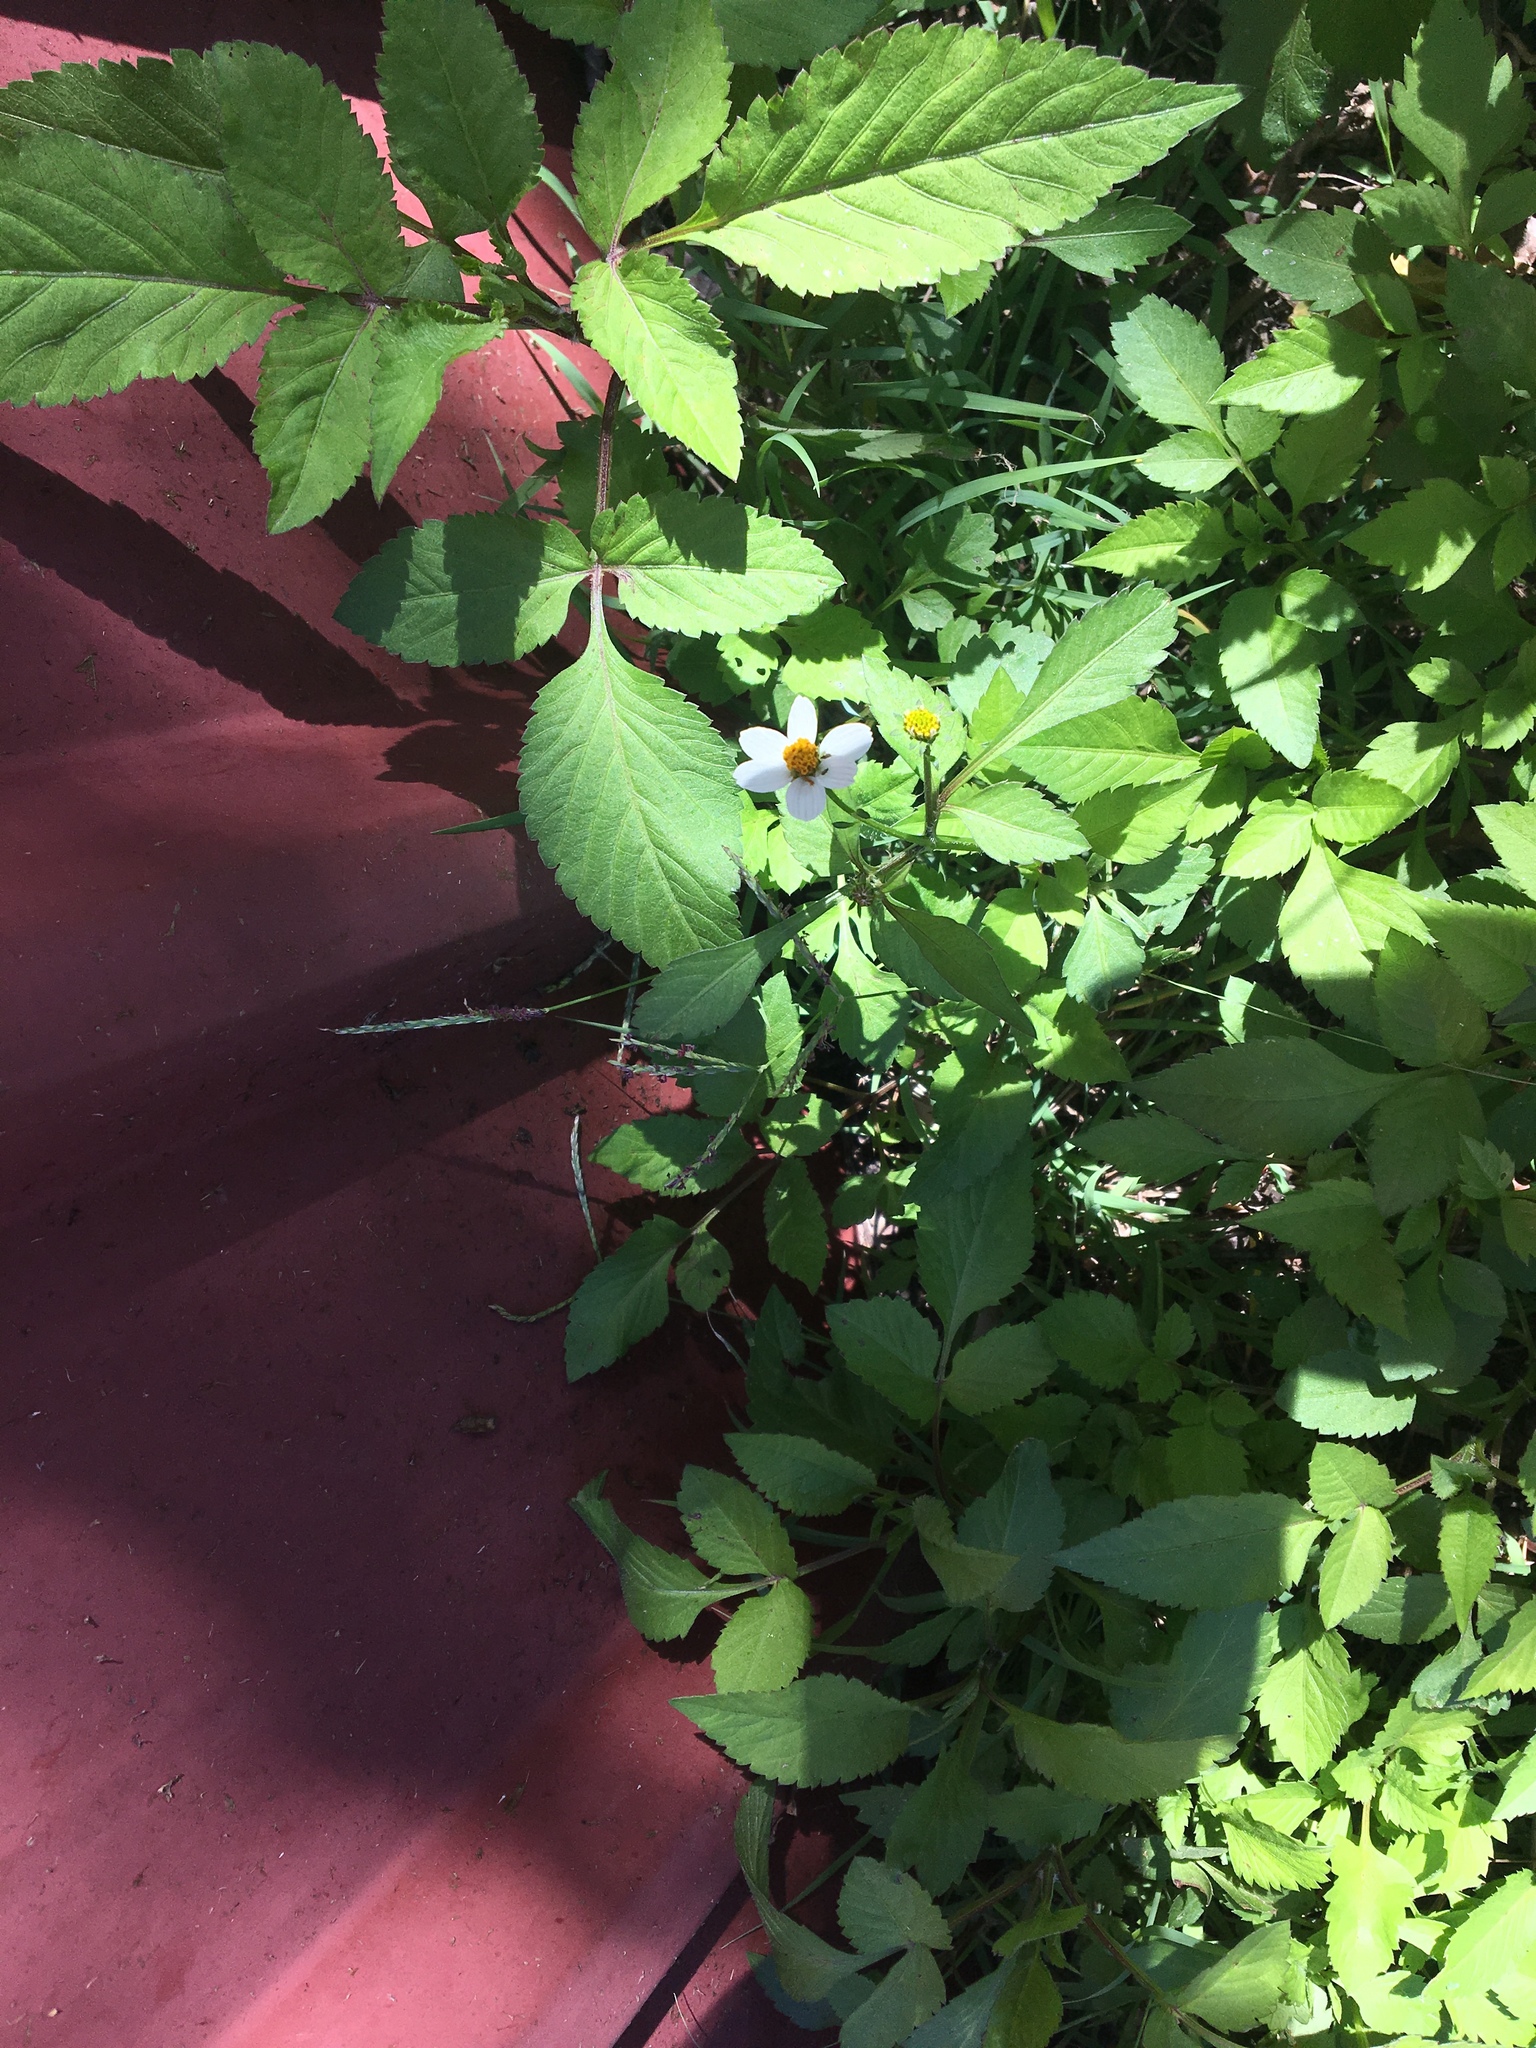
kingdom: Plantae
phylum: Tracheophyta
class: Magnoliopsida
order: Asterales
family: Asteraceae
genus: Bidens
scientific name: Bidens alba
